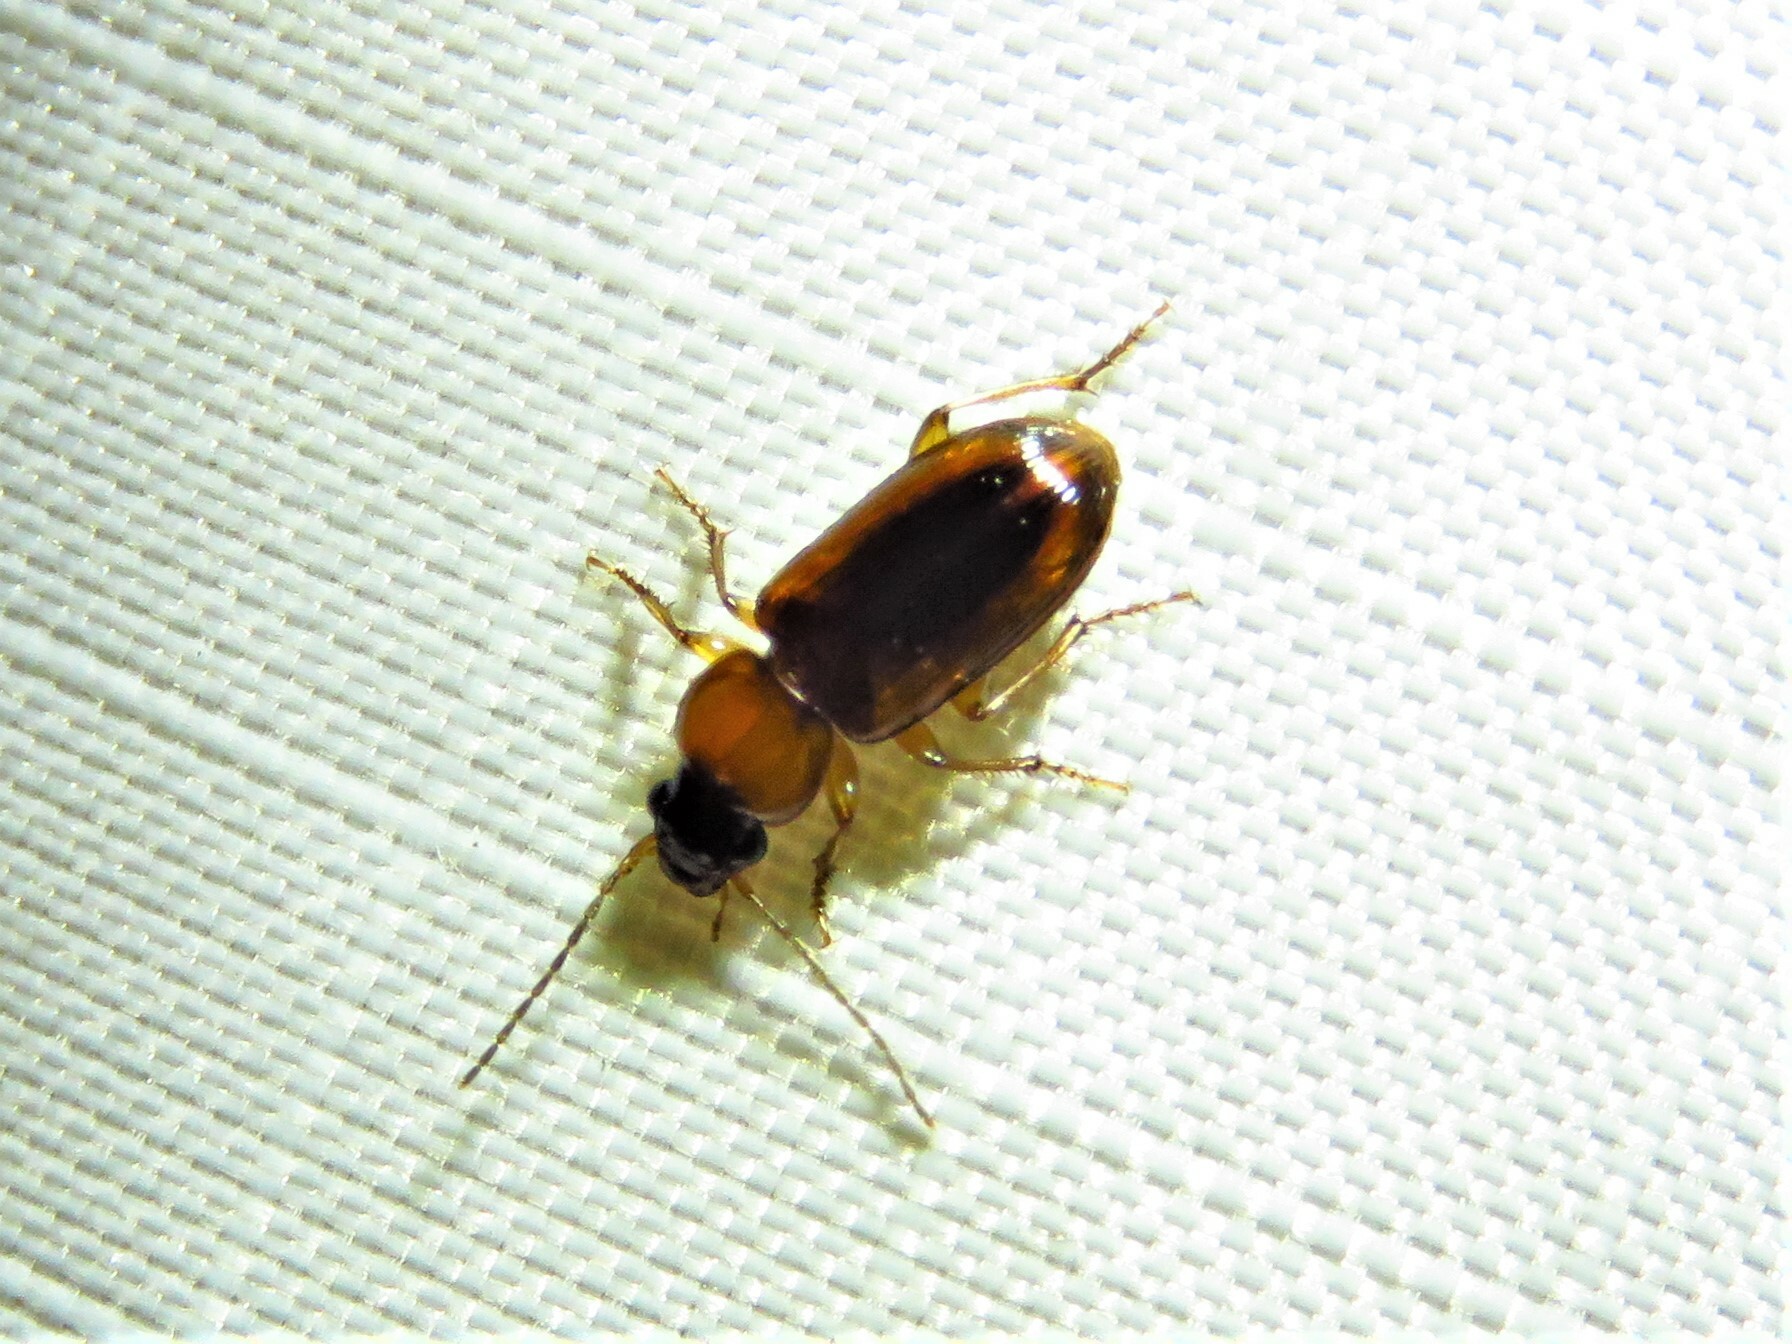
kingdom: Animalia
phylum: Arthropoda
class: Insecta
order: Coleoptera
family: Carabidae
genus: Stenolophus
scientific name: Stenolophus dissimilis
